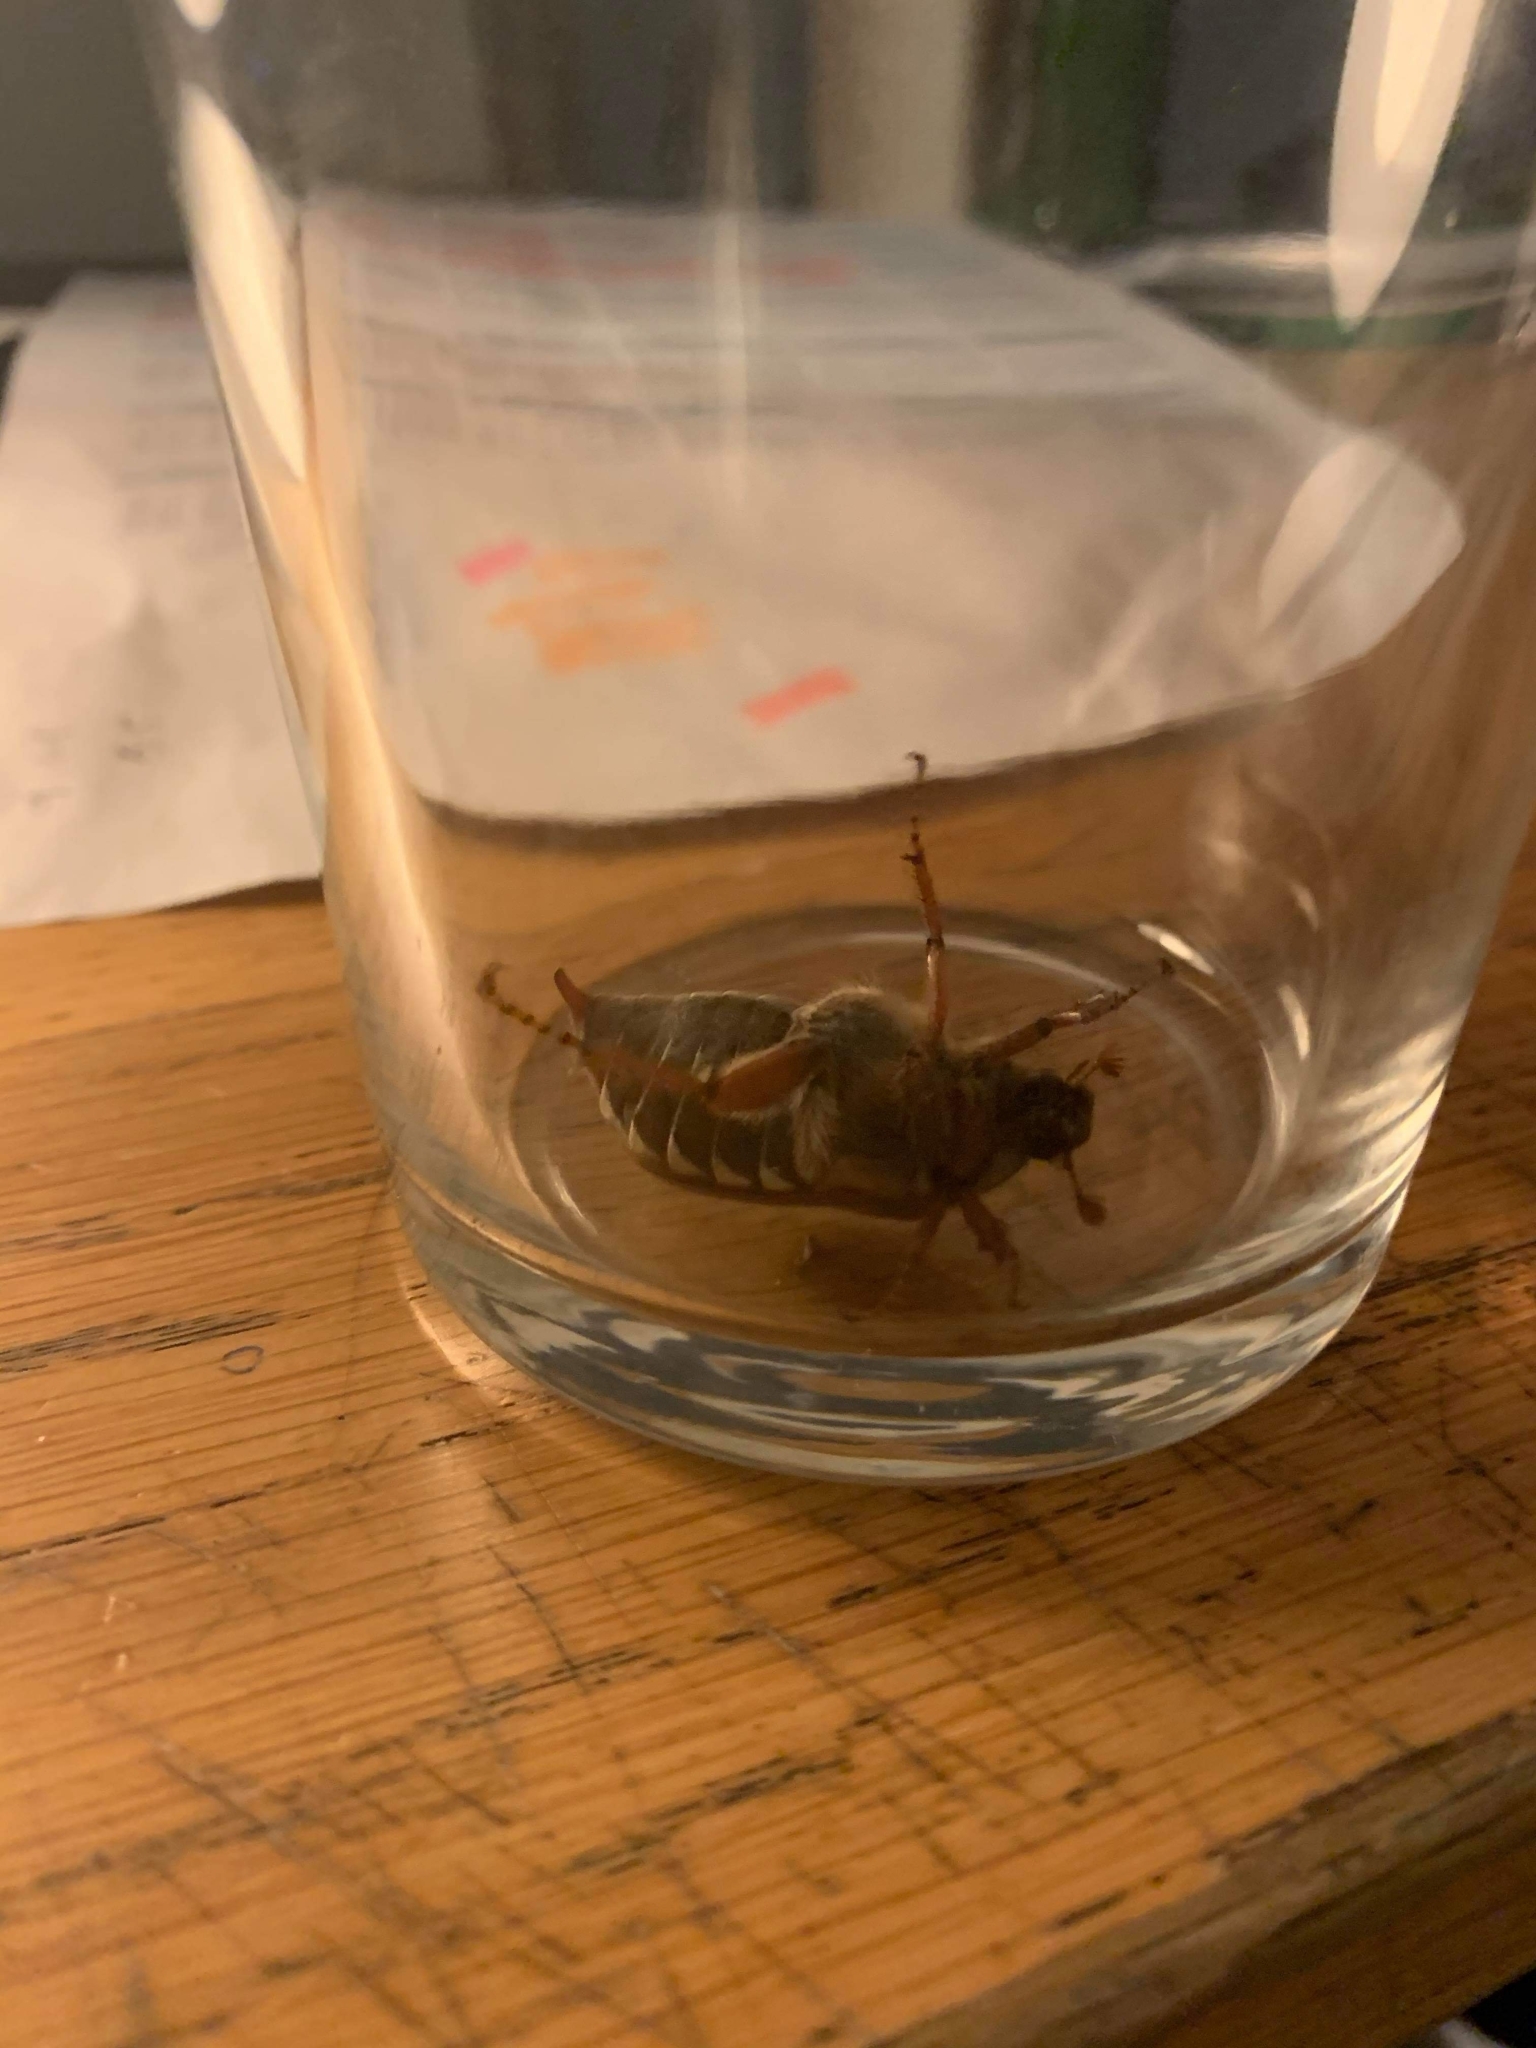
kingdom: Animalia
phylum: Arthropoda
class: Insecta
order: Coleoptera
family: Scarabaeidae
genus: Melolontha
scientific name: Melolontha melolontha
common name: Cockchafer maybeetle
